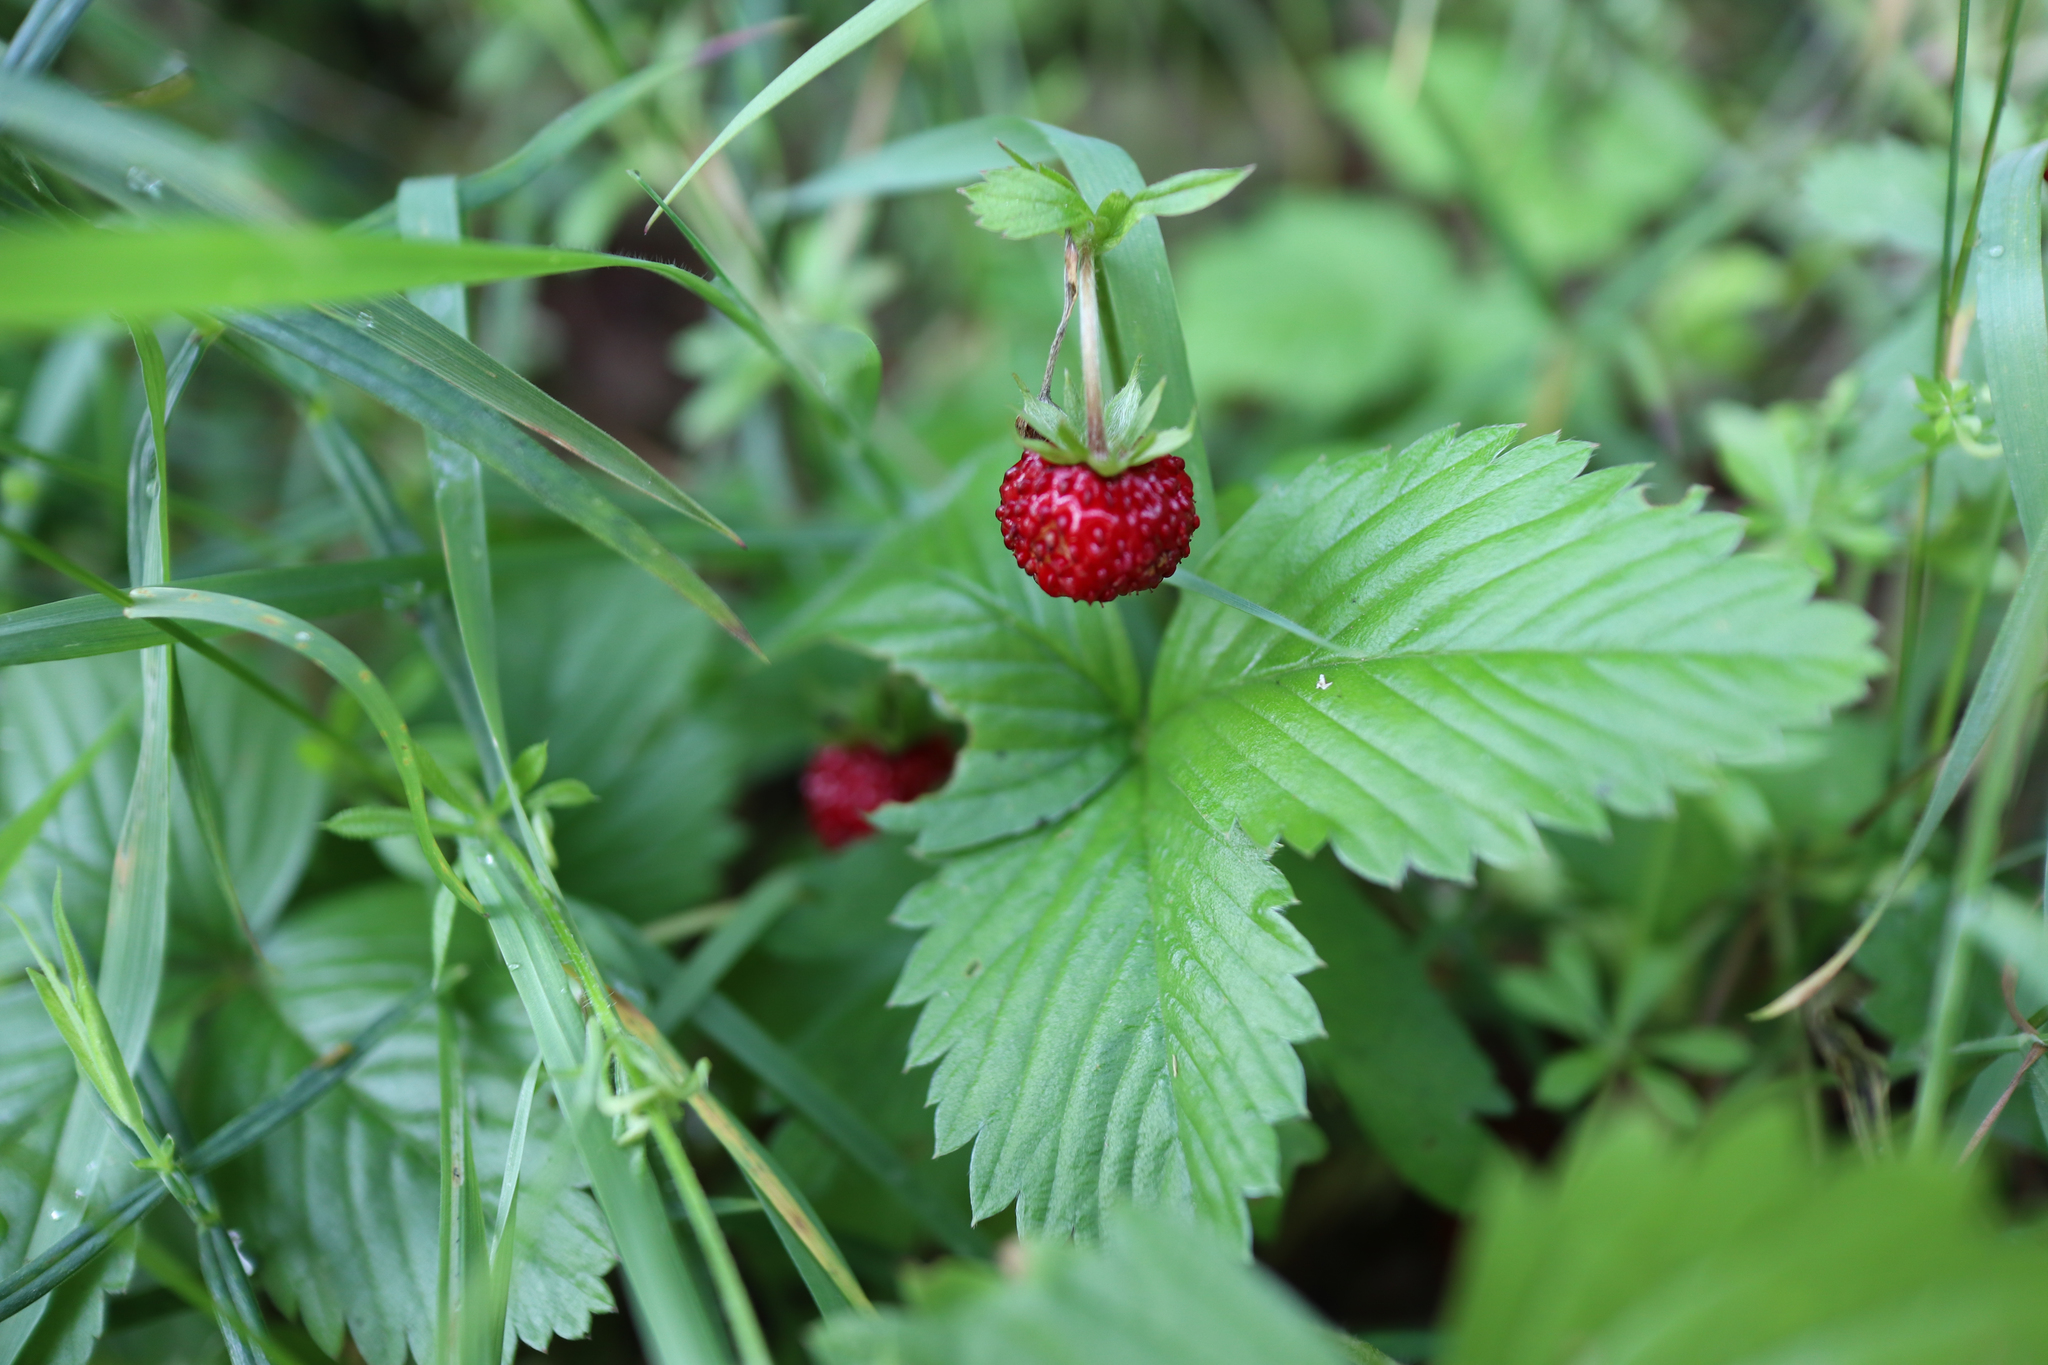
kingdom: Plantae
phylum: Tracheophyta
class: Magnoliopsida
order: Rosales
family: Rosaceae
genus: Fragaria
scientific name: Fragaria vesca
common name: Wild strawberry
